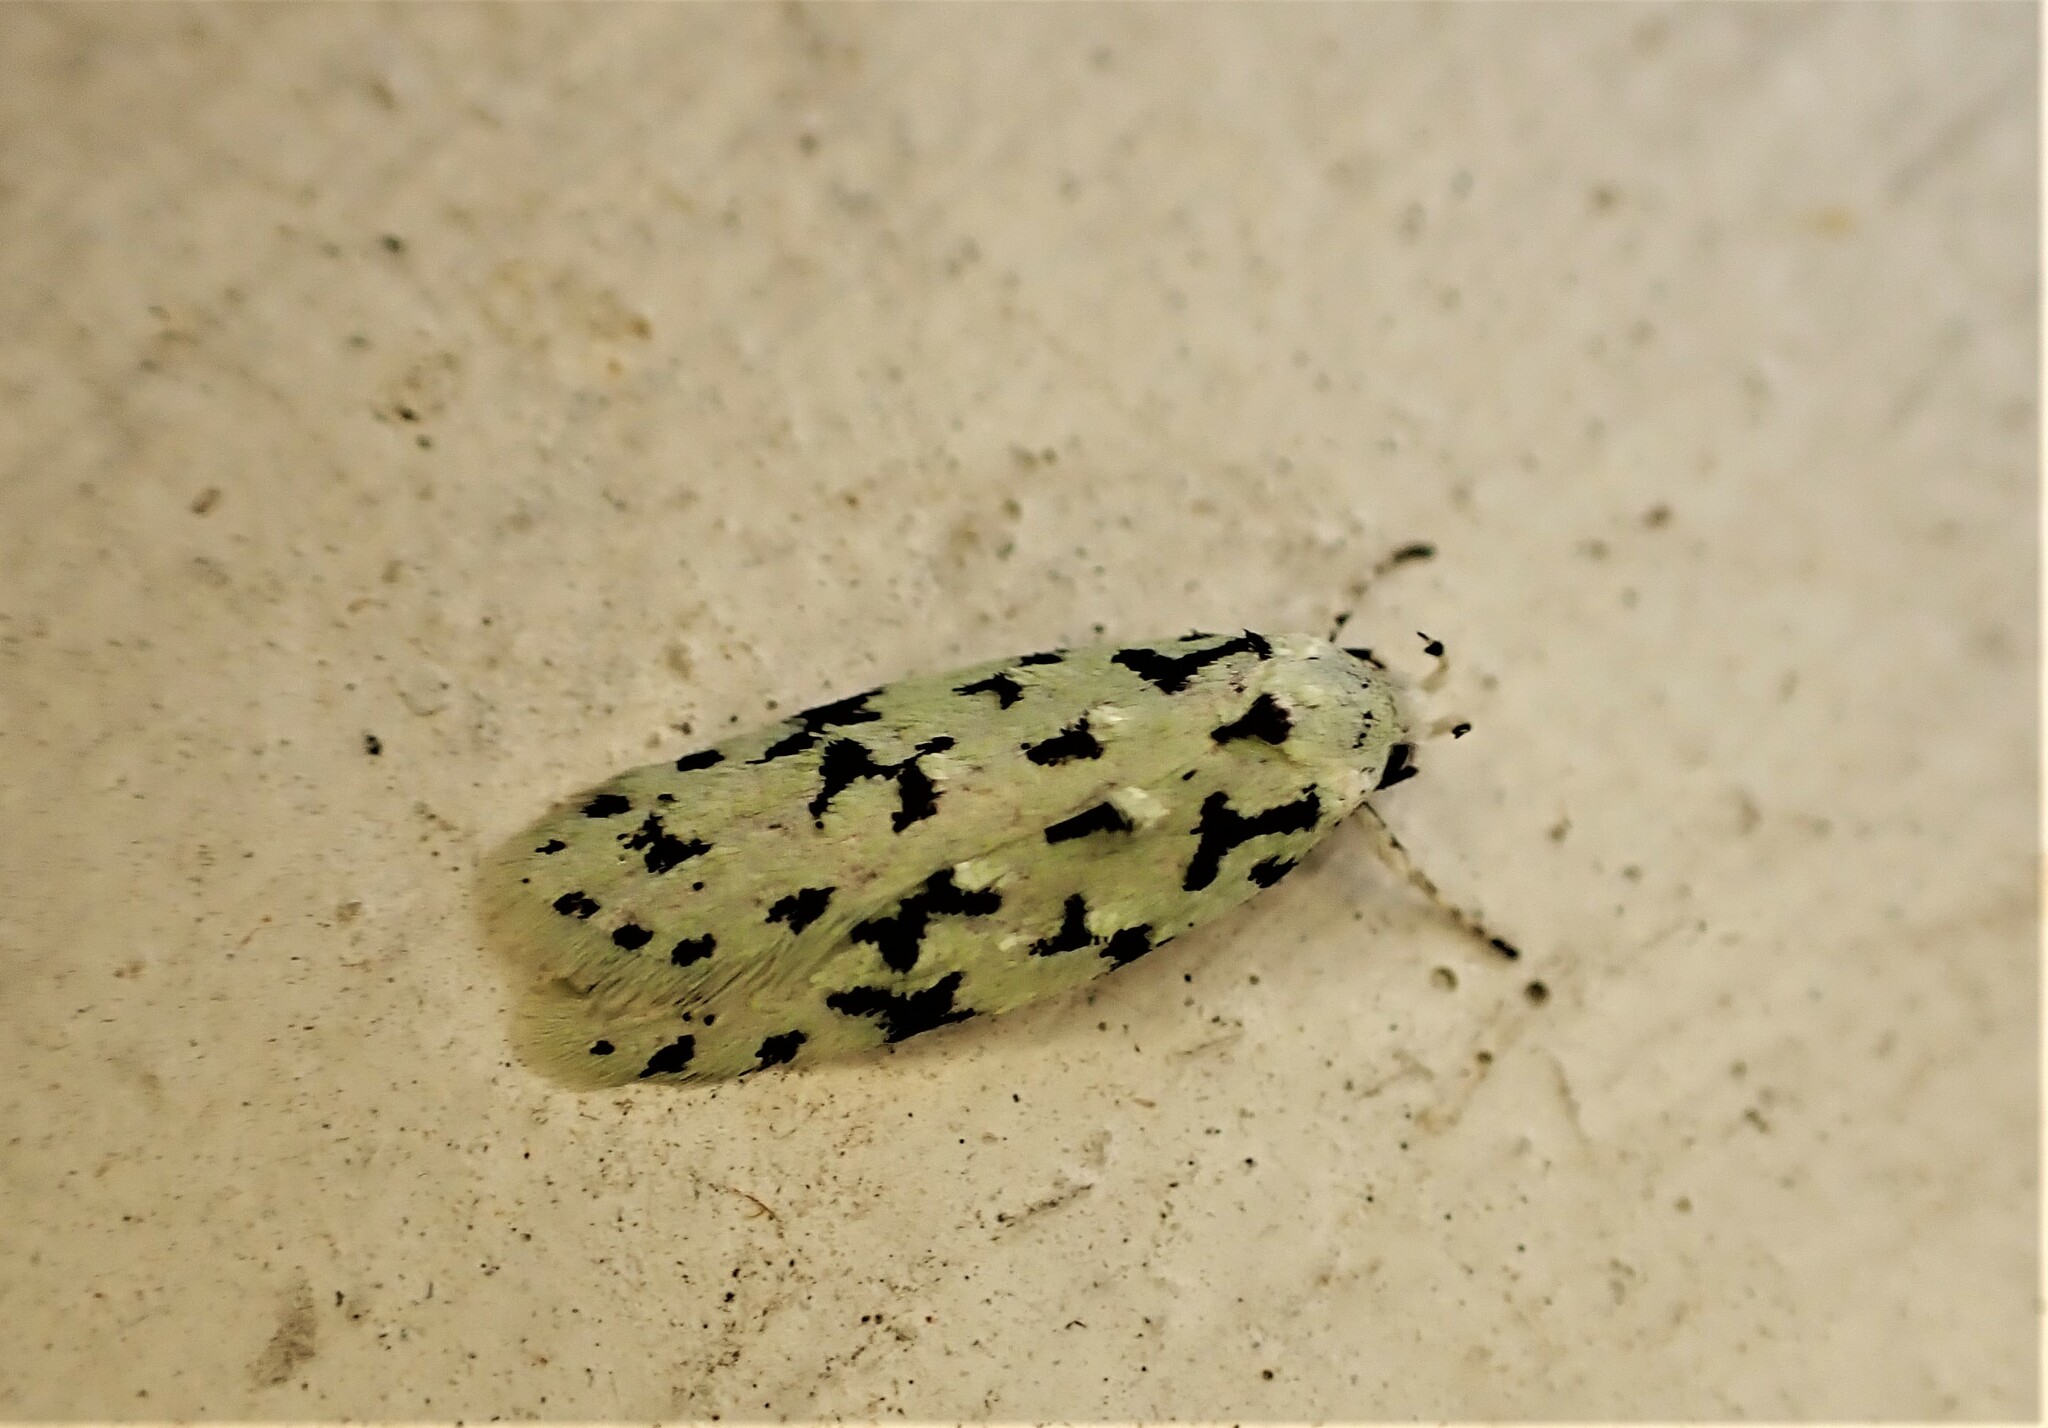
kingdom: Animalia
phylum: Arthropoda
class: Insecta
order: Lepidoptera
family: Oecophoridae
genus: Izatha
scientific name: Izatha huttoni
